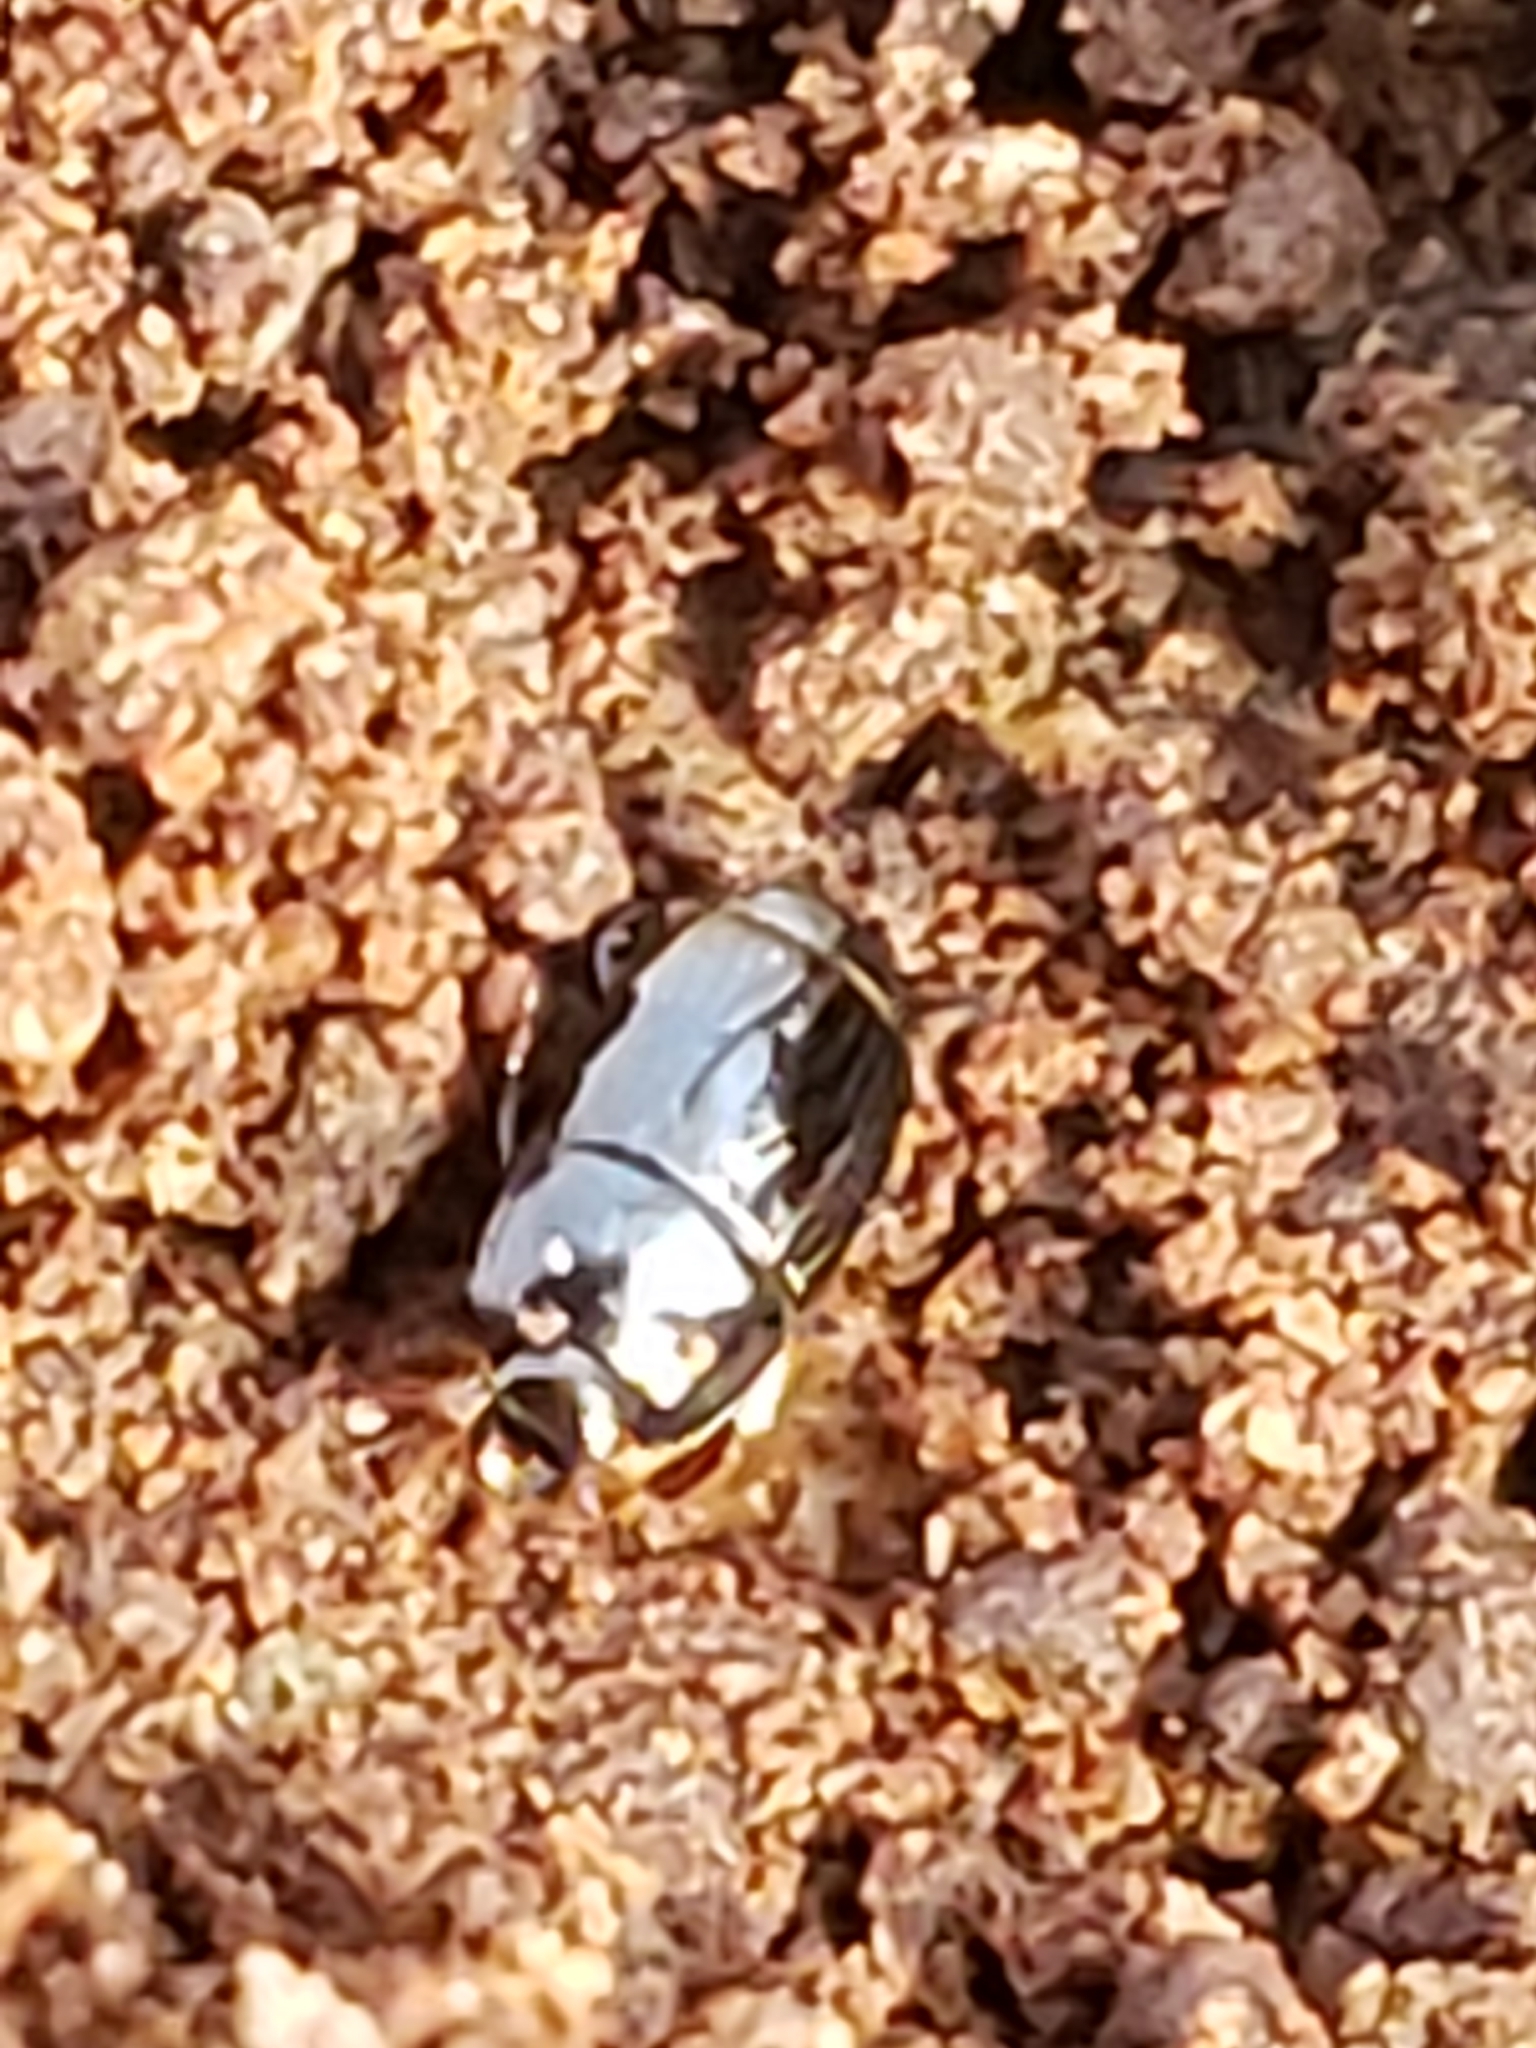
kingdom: Animalia
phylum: Arthropoda
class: Insecta
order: Coleoptera
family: Histeridae
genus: Platysoma
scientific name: Platysoma leconti
